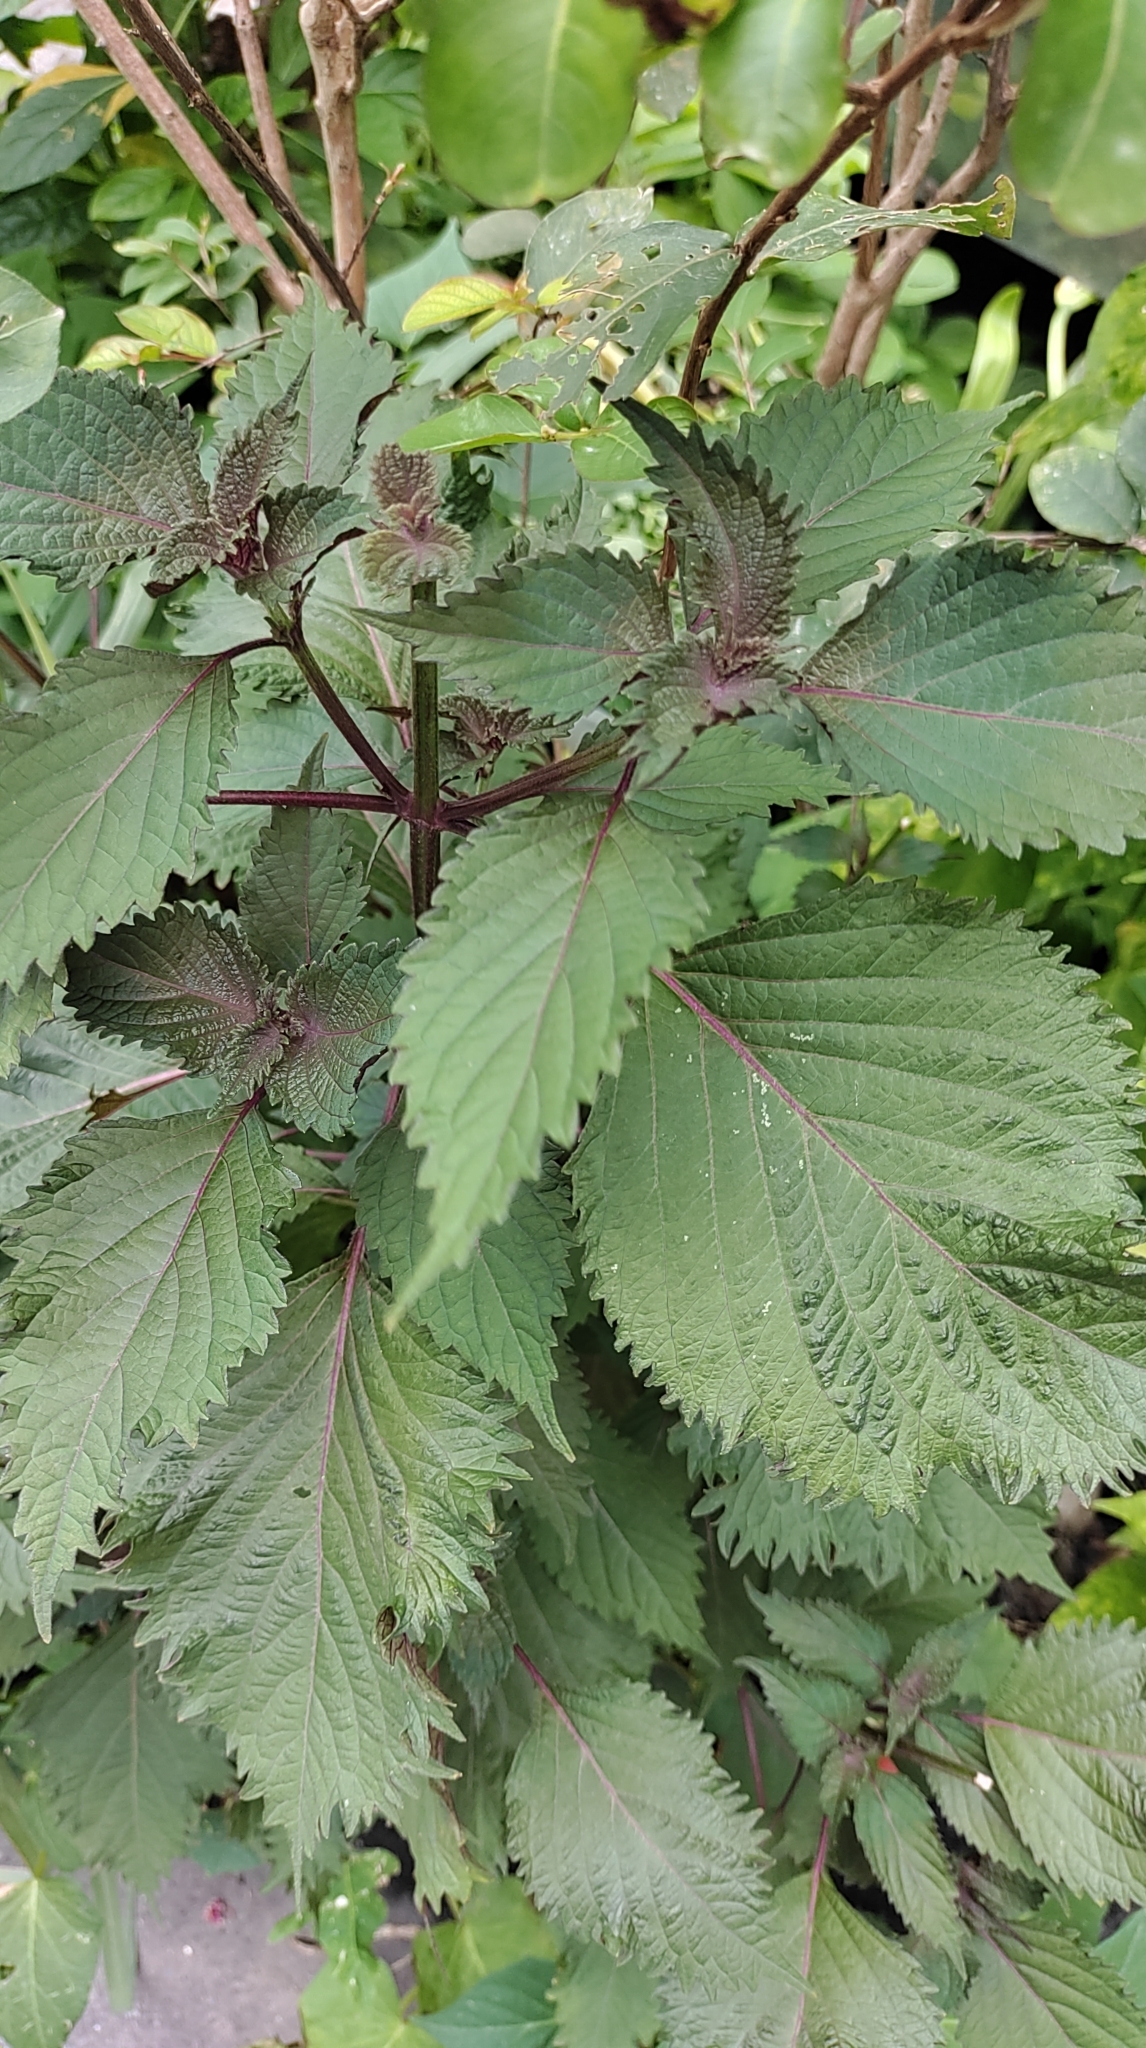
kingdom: Plantae
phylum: Tracheophyta
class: Magnoliopsida
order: Lamiales
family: Lamiaceae
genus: Perilla
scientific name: Perilla frutescens
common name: Perilla
